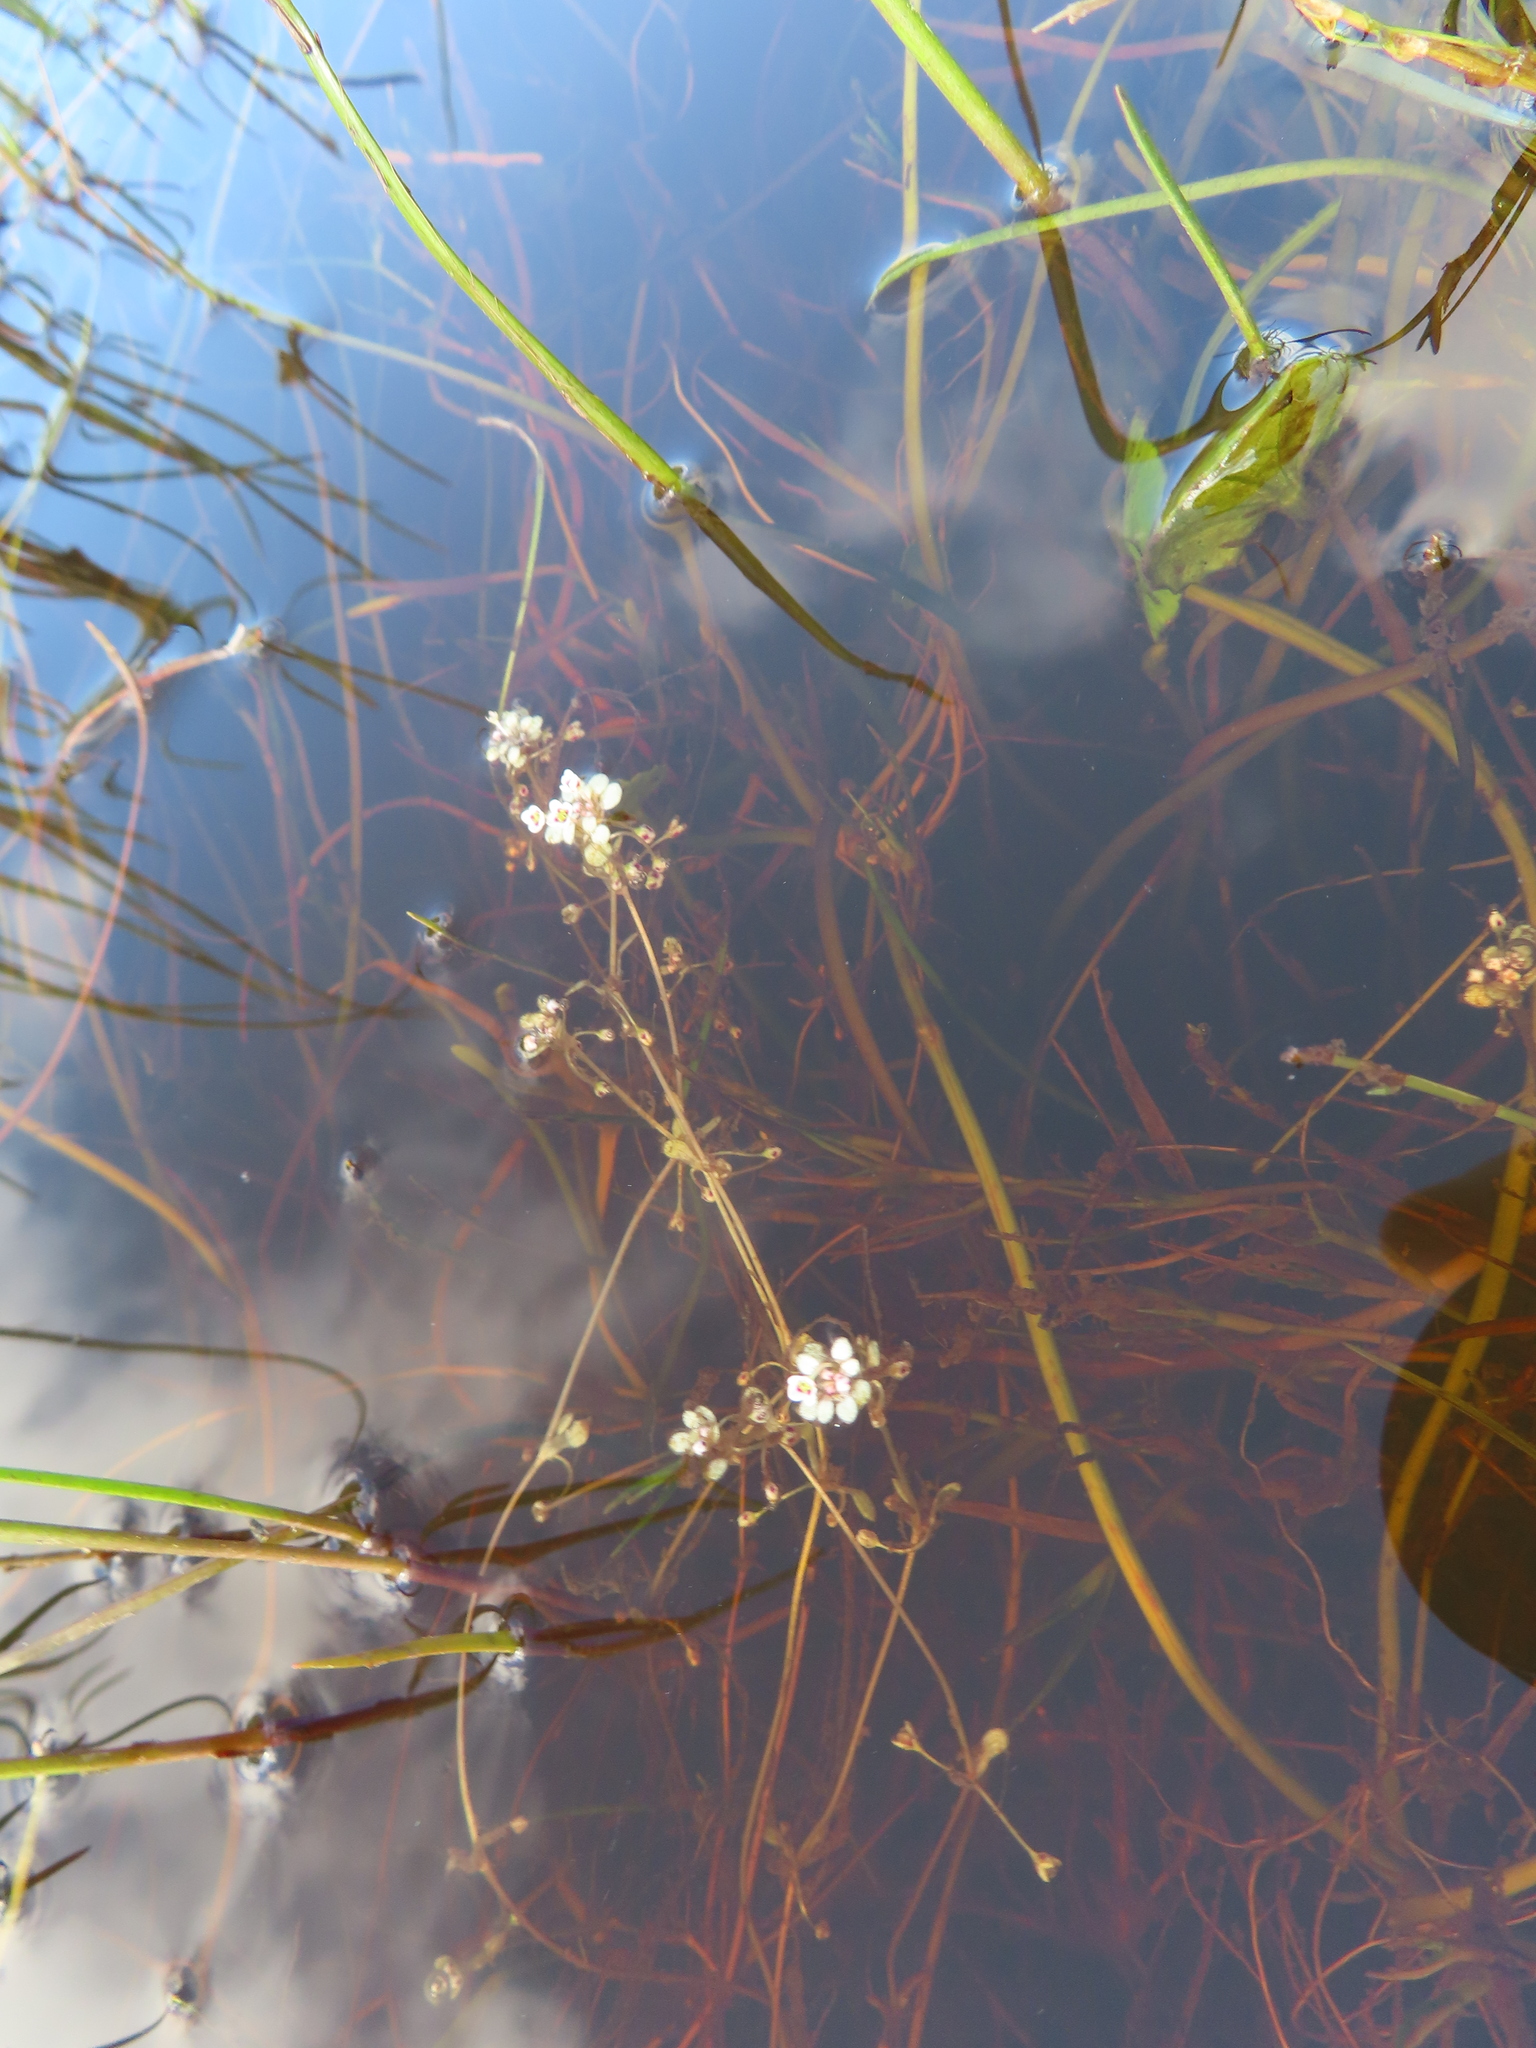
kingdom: Plantae
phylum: Tracheophyta
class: Magnoliopsida
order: Saxifragales
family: Crassulaceae
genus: Crassula
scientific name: Crassula natans
